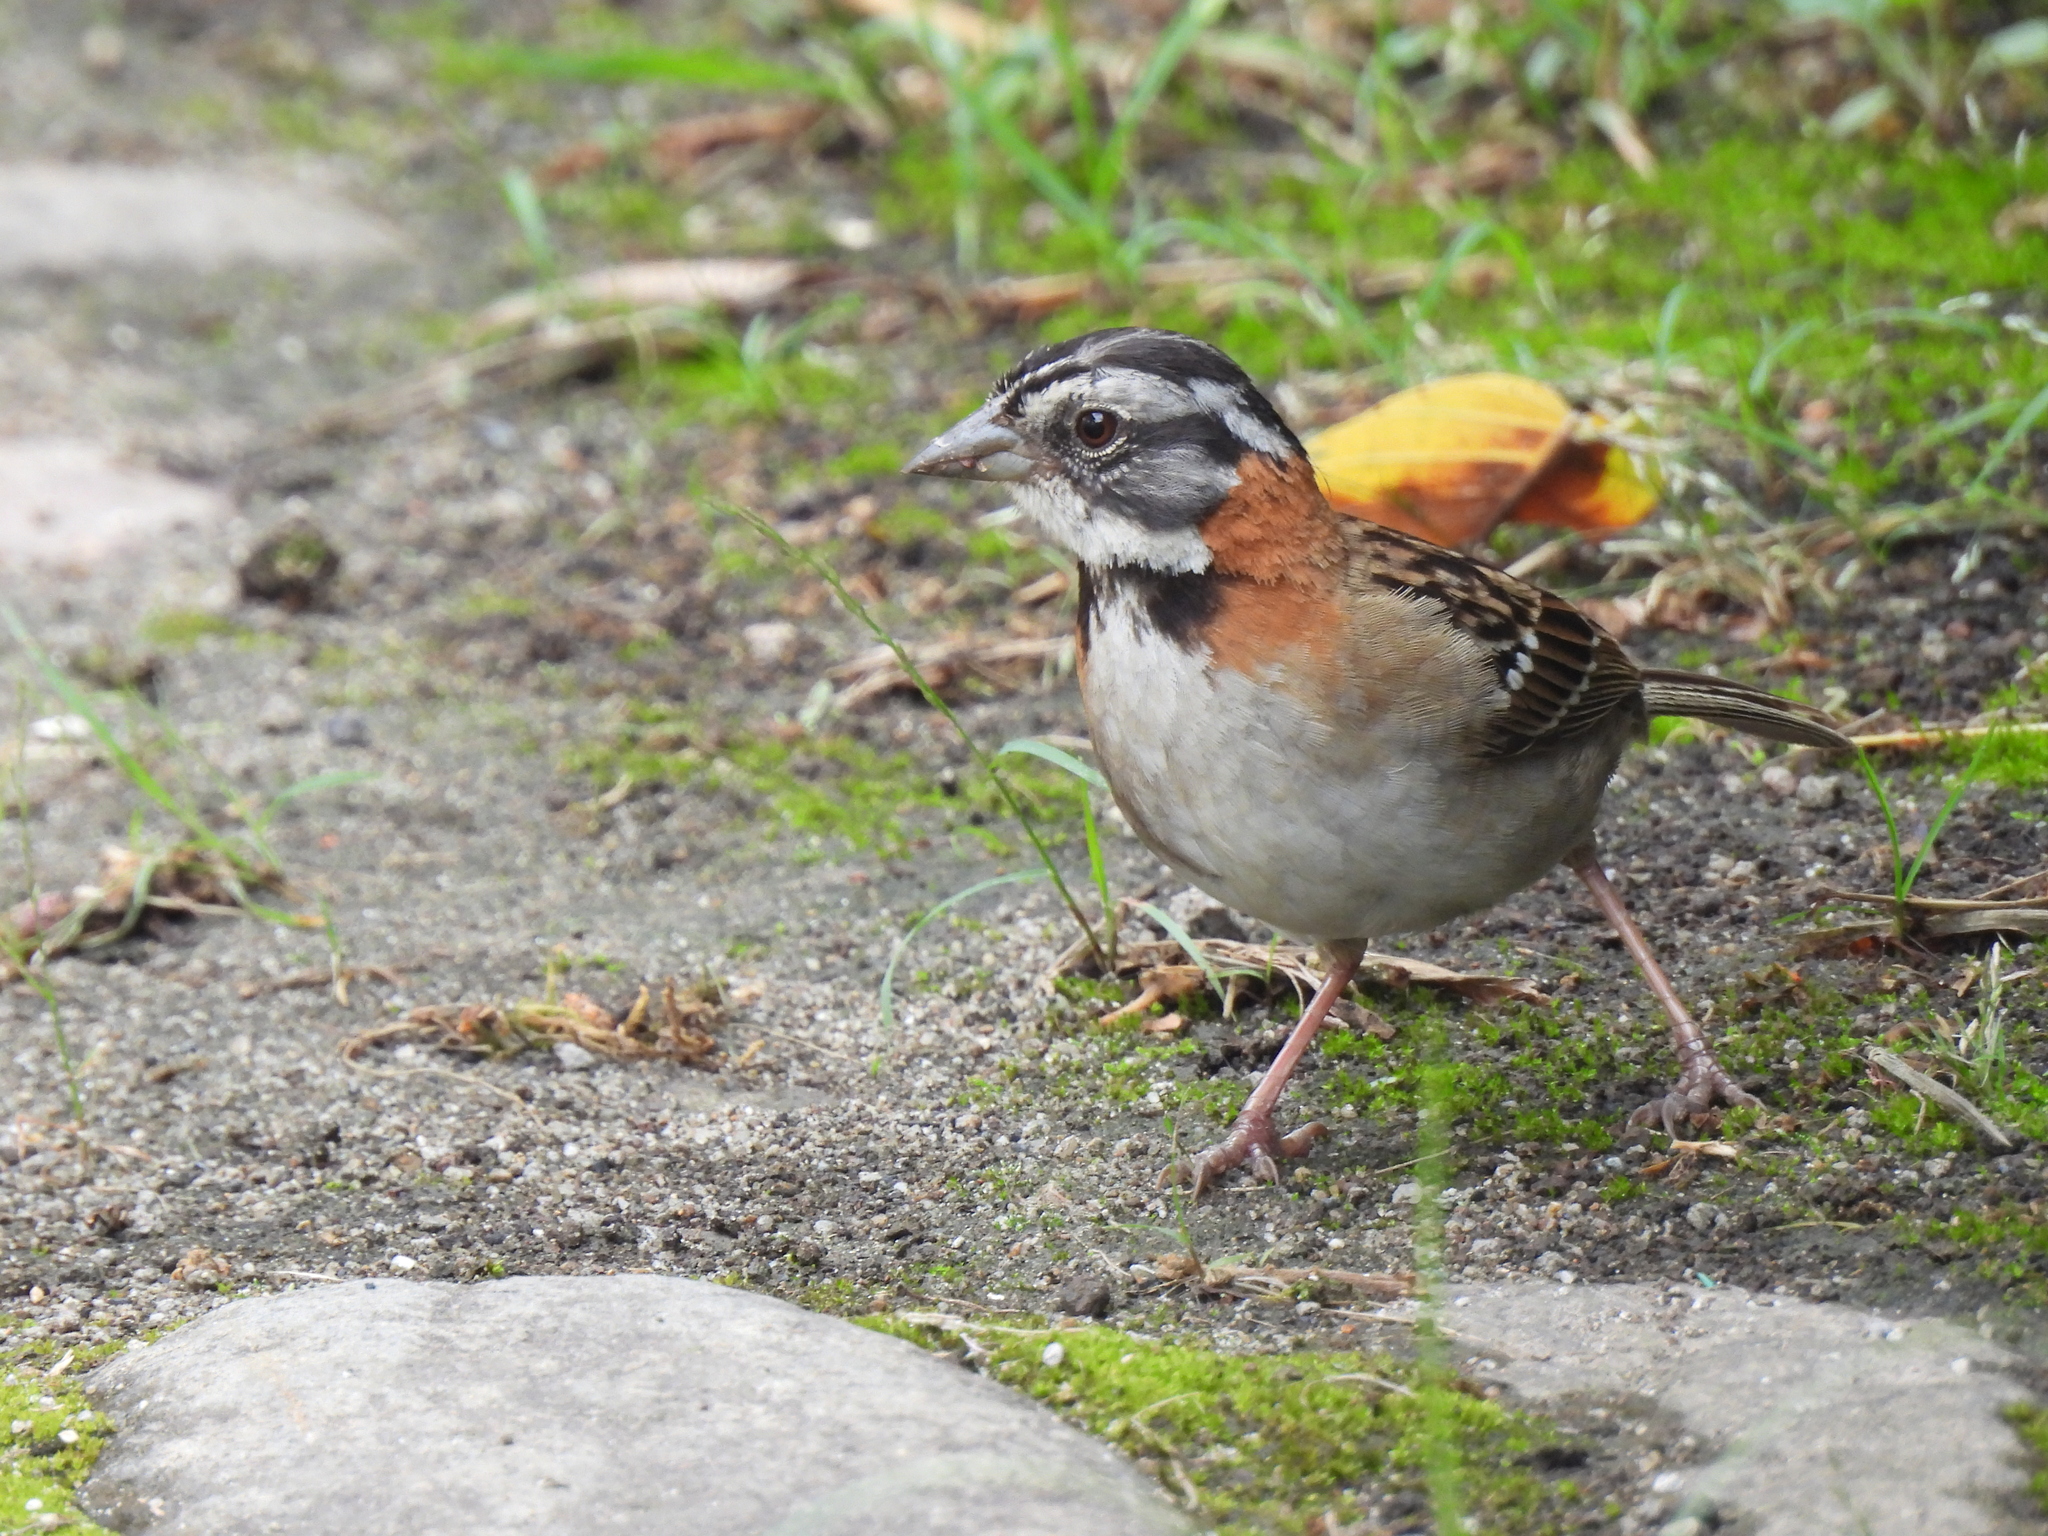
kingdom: Animalia
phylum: Chordata
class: Aves
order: Passeriformes
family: Passerellidae
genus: Zonotrichia
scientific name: Zonotrichia capensis
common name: Rufous-collared sparrow
